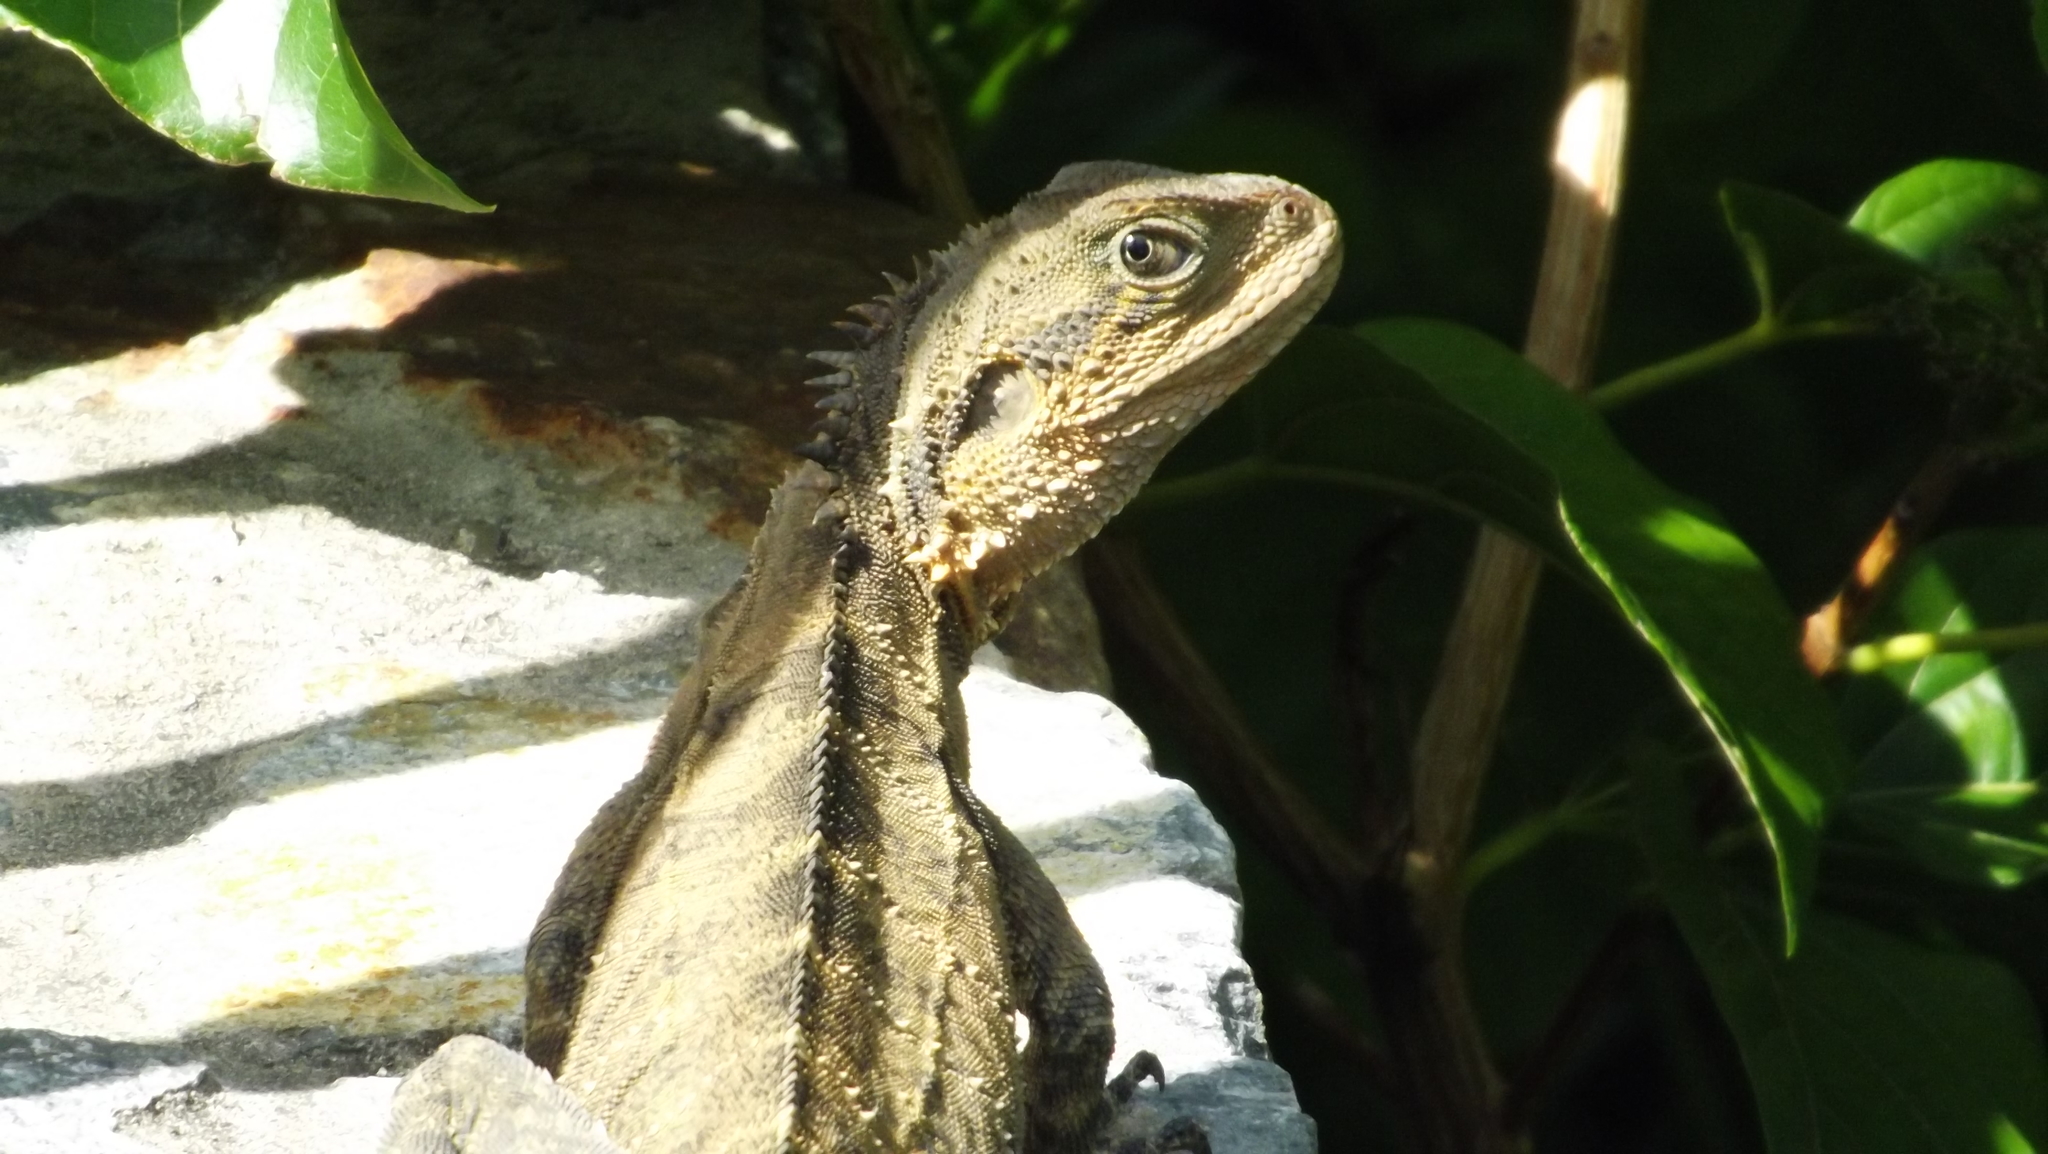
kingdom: Animalia
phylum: Chordata
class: Squamata
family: Agamidae
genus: Intellagama
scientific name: Intellagama lesueurii
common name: Eastern water dragon
